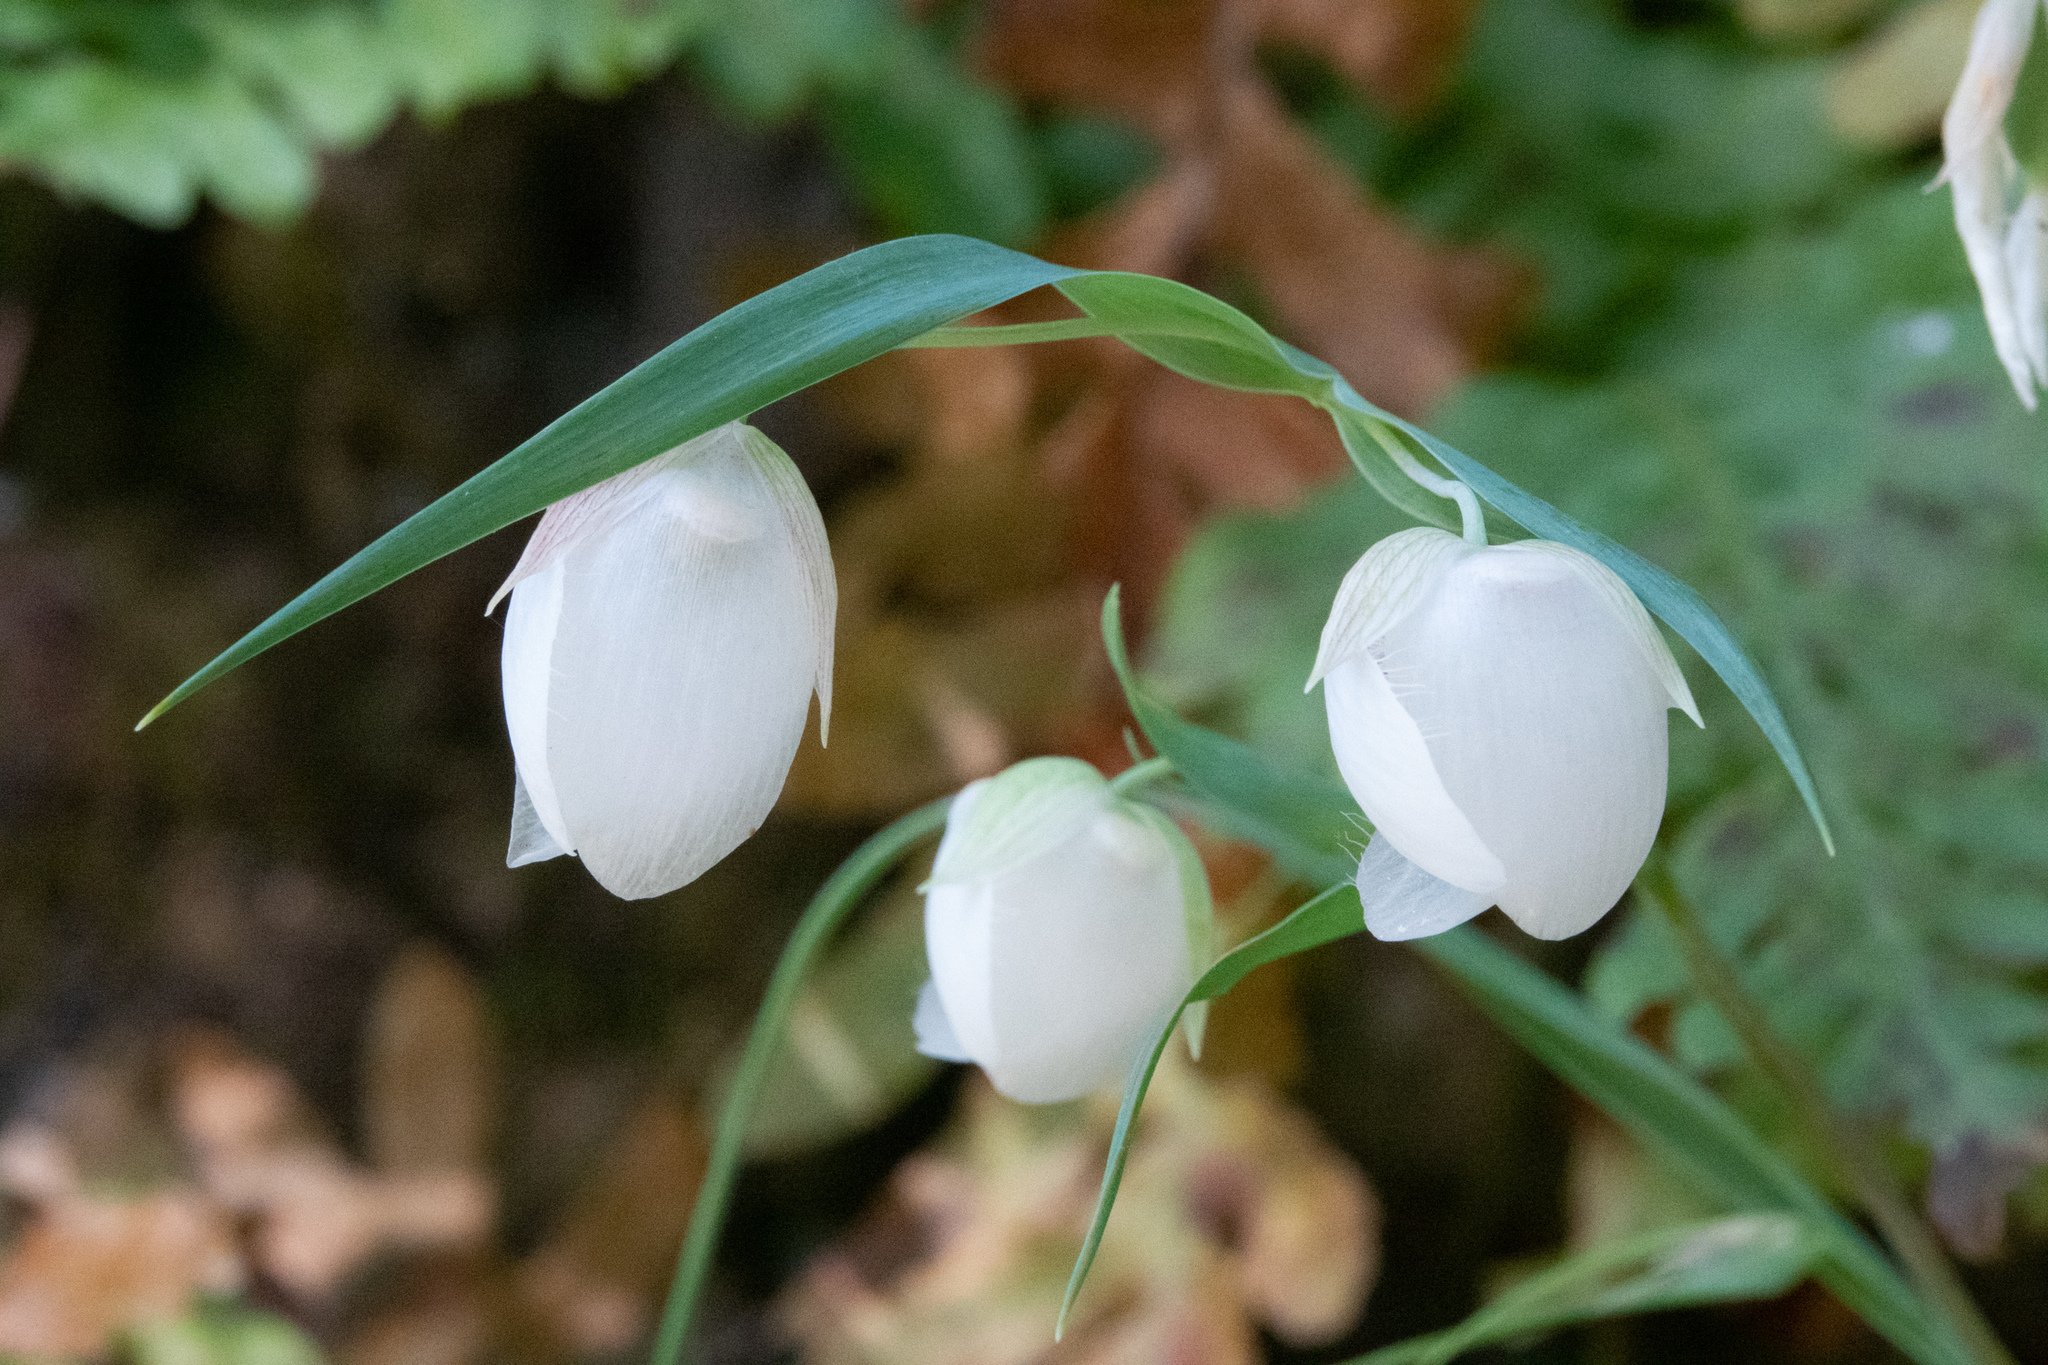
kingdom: Plantae
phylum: Tracheophyta
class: Liliopsida
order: Liliales
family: Liliaceae
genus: Calochortus
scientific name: Calochortus albus
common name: Fairy-lantern
